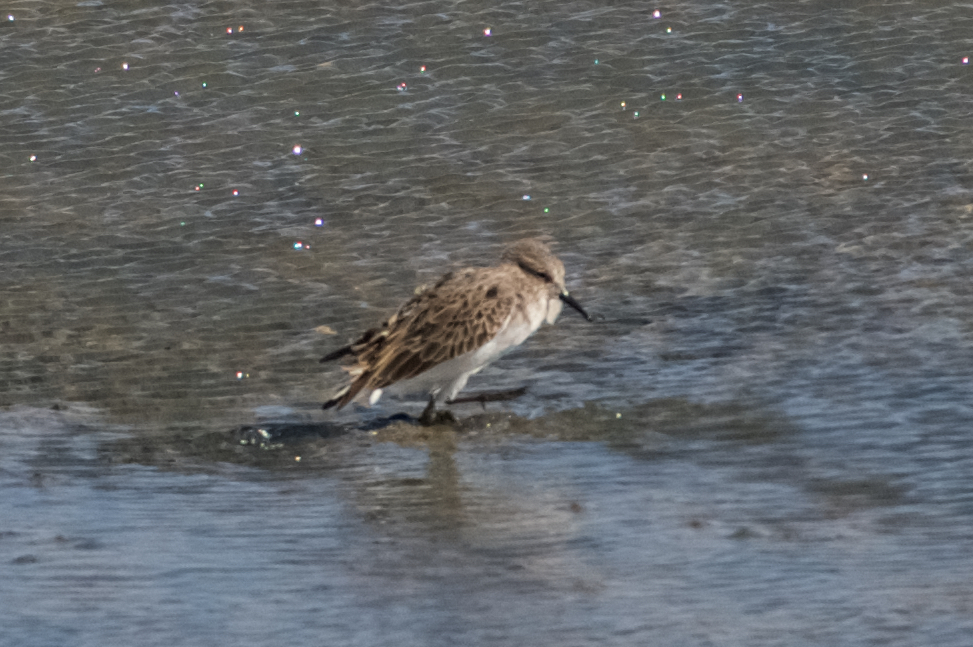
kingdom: Animalia
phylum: Chordata
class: Aves
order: Charadriiformes
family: Scolopacidae
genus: Calidris
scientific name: Calidris minutilla
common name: Least sandpiper
